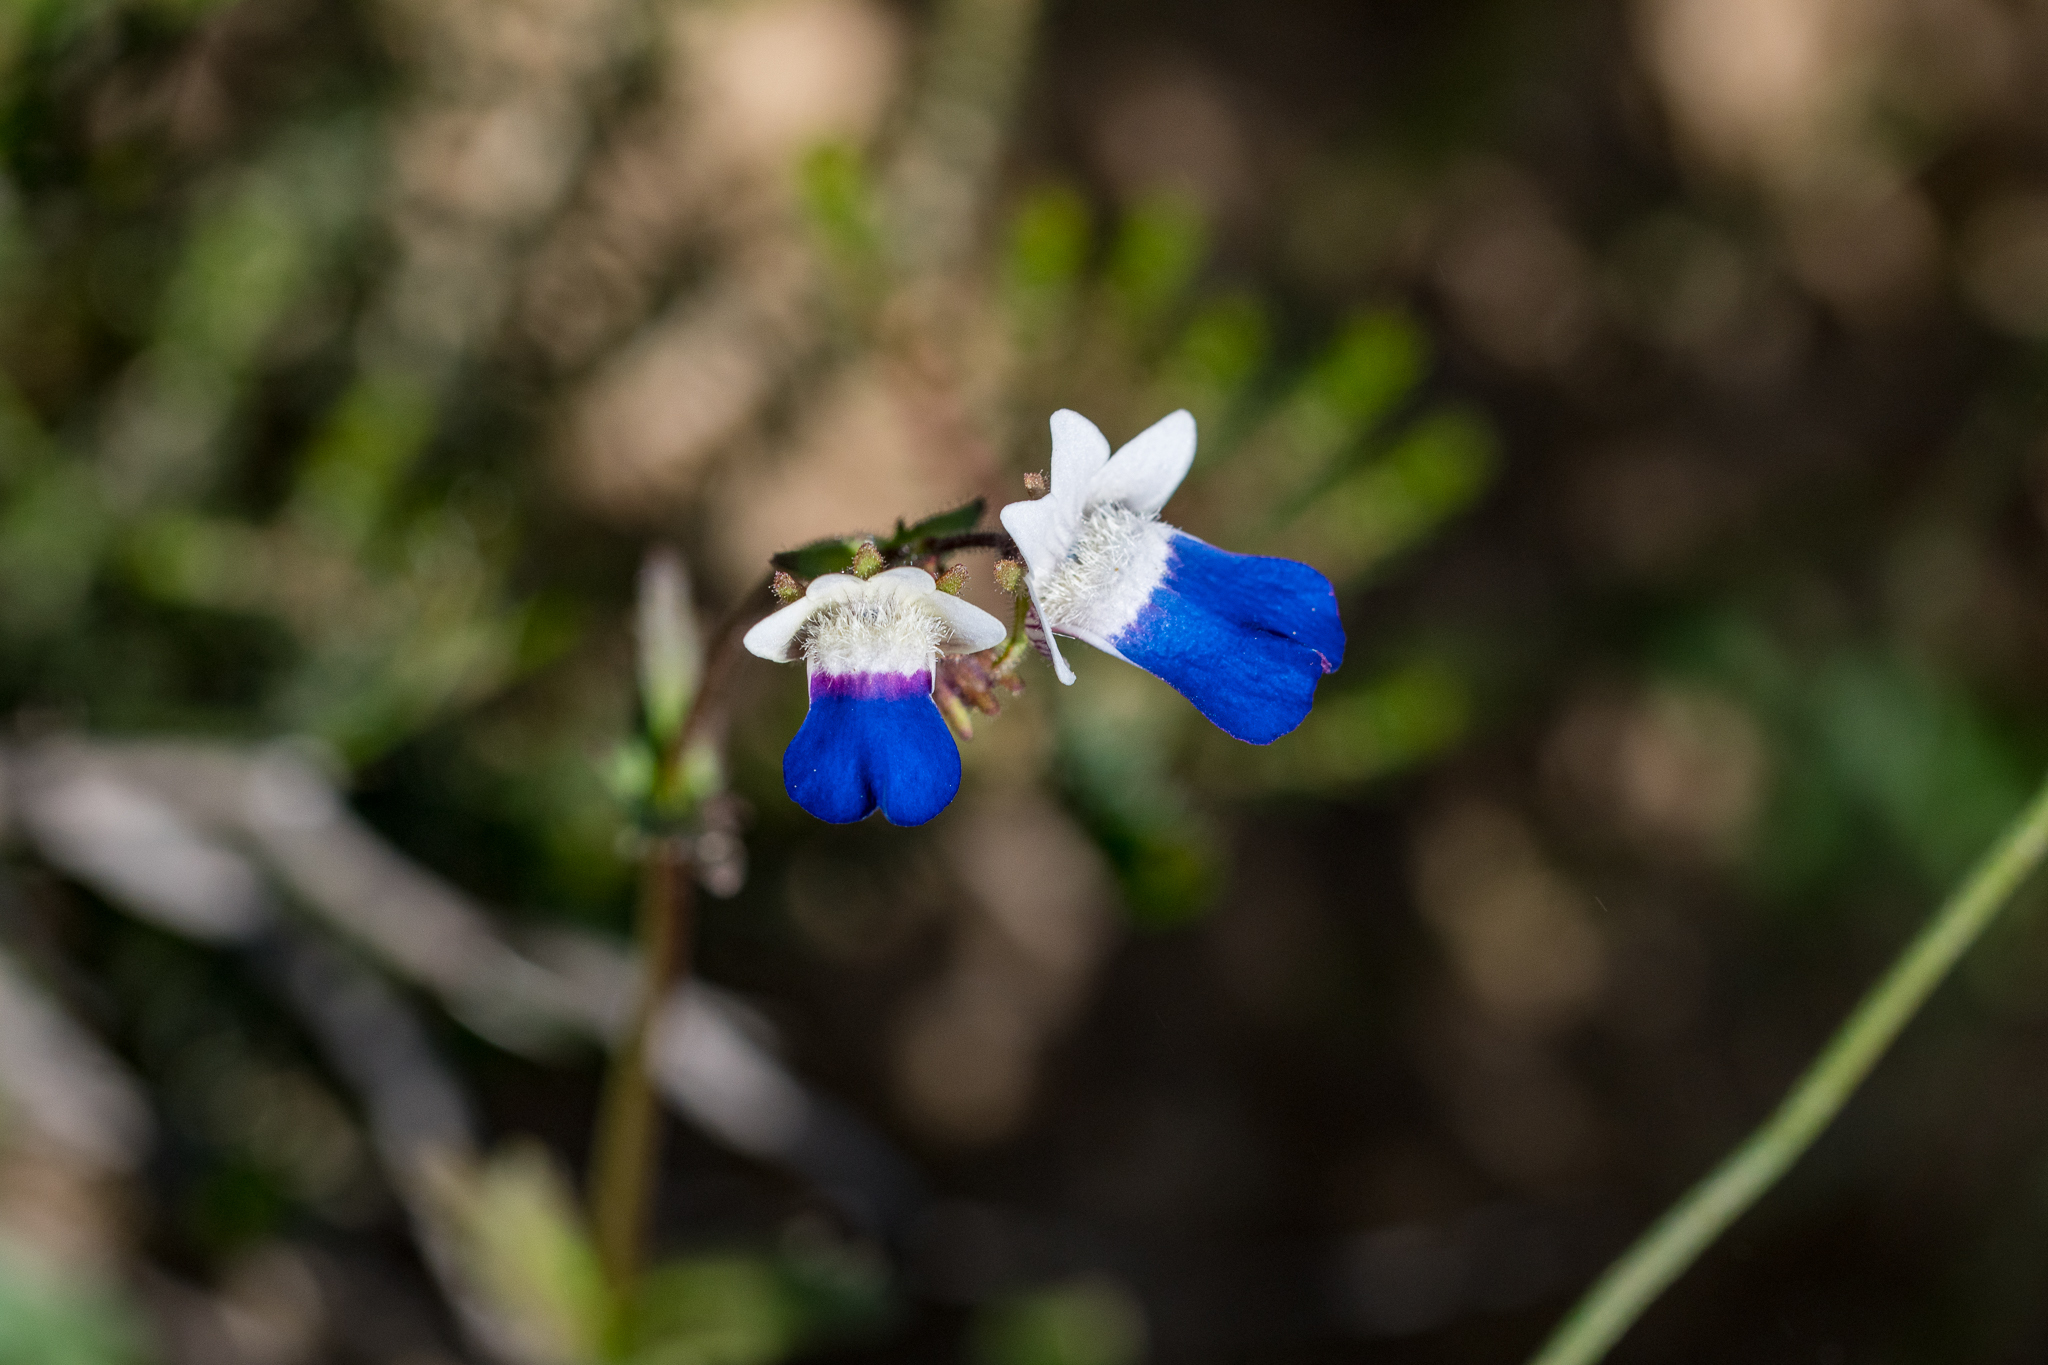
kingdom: Plantae
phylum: Tracheophyta
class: Magnoliopsida
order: Lamiales
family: Scrophulariaceae
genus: Nemesia
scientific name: Nemesia barbata
